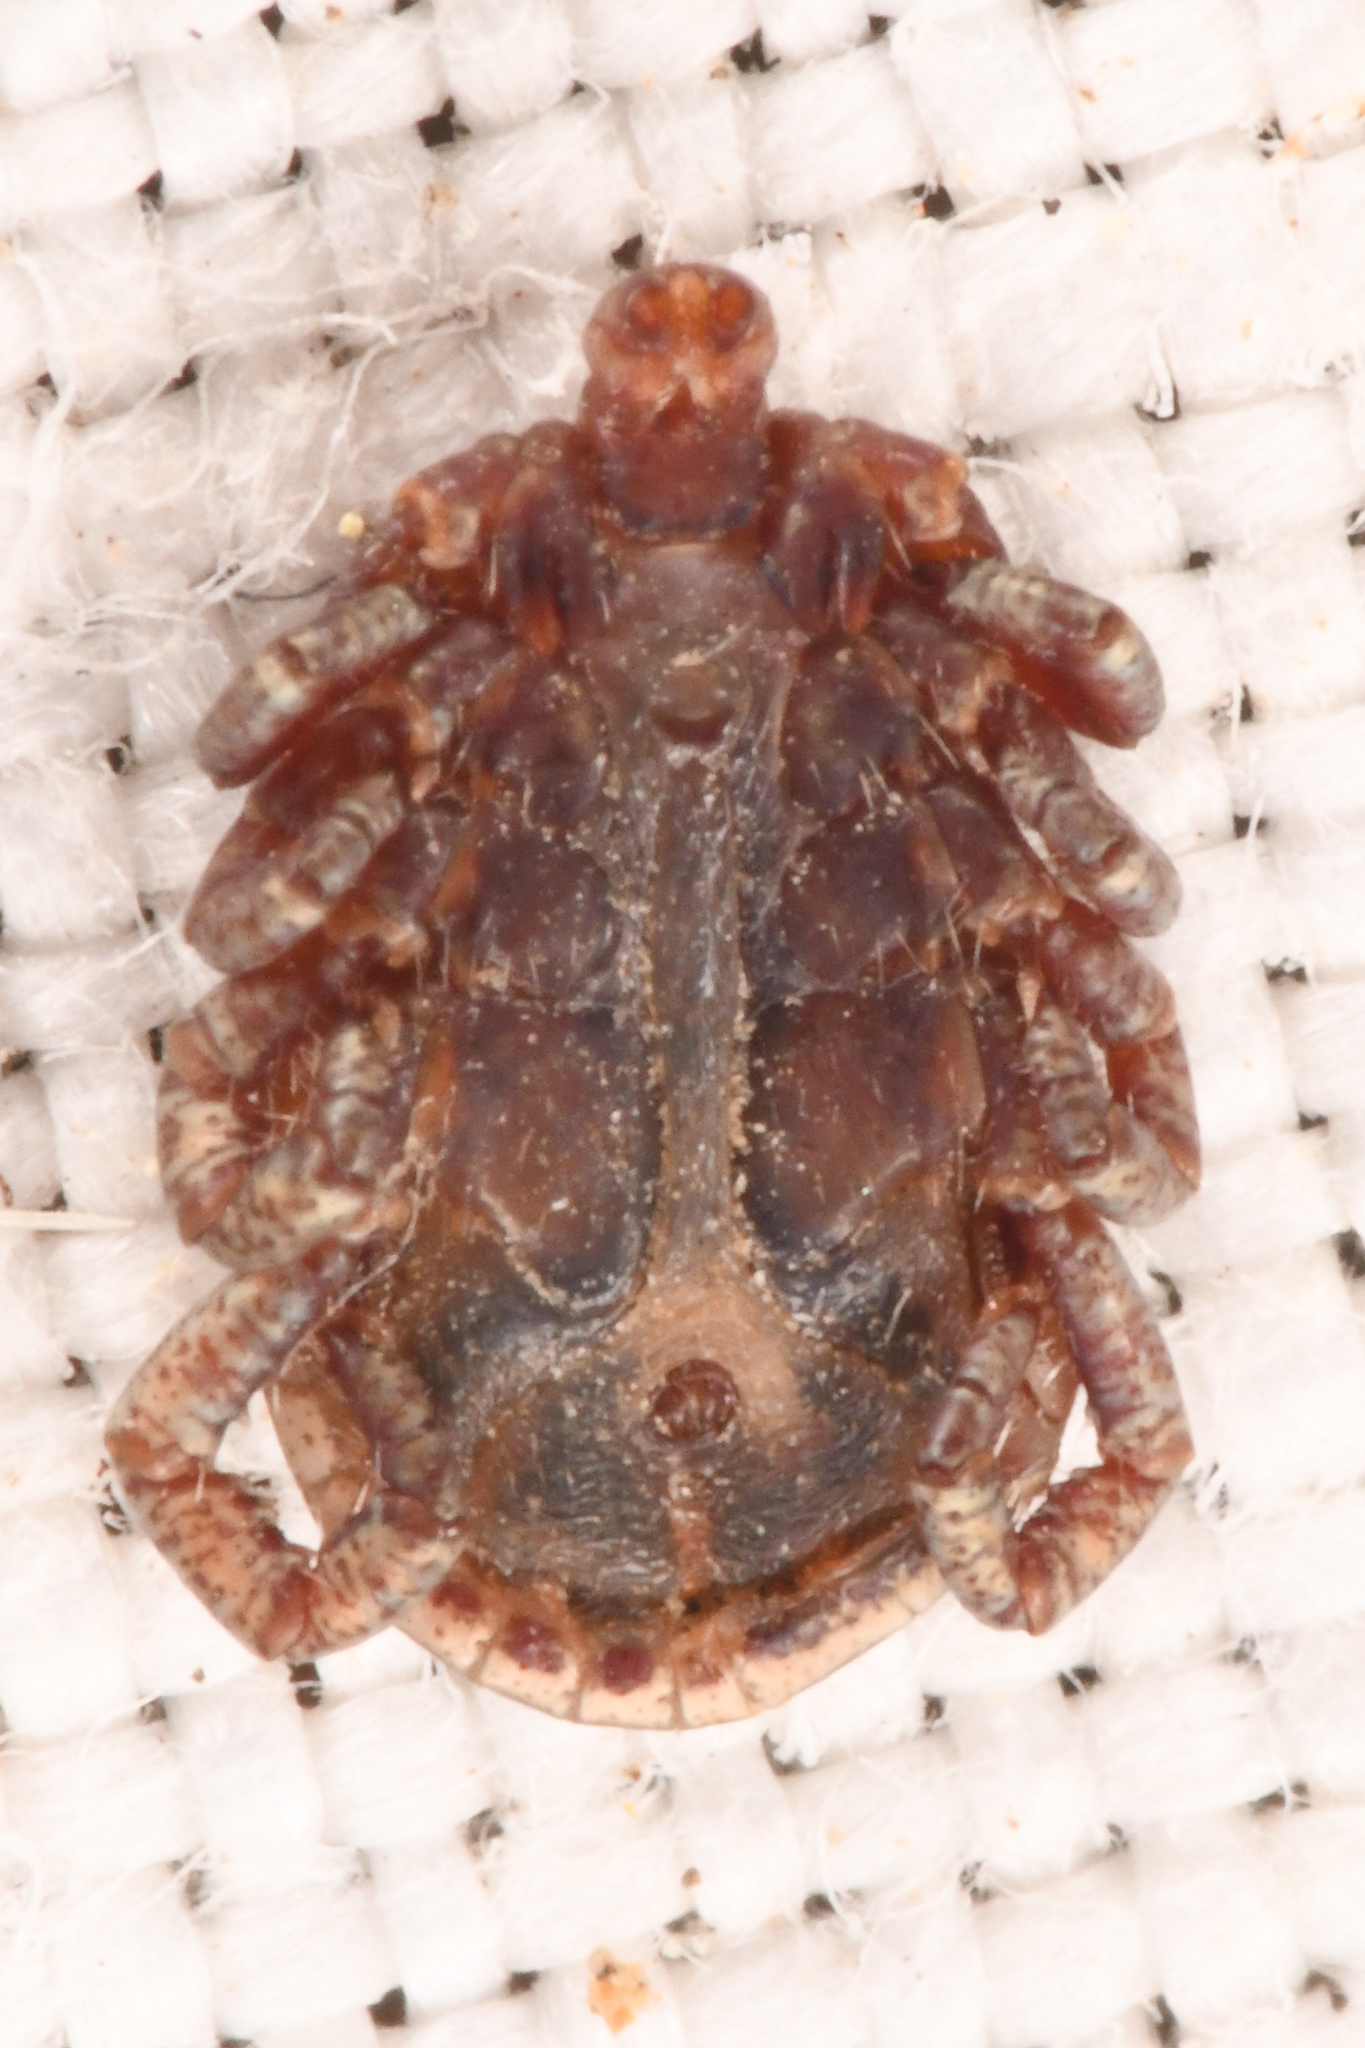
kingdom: Animalia
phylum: Arthropoda
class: Arachnida
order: Ixodida
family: Ixodidae
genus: Dermacentor
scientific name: Dermacentor occidentalis
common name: Net tick
